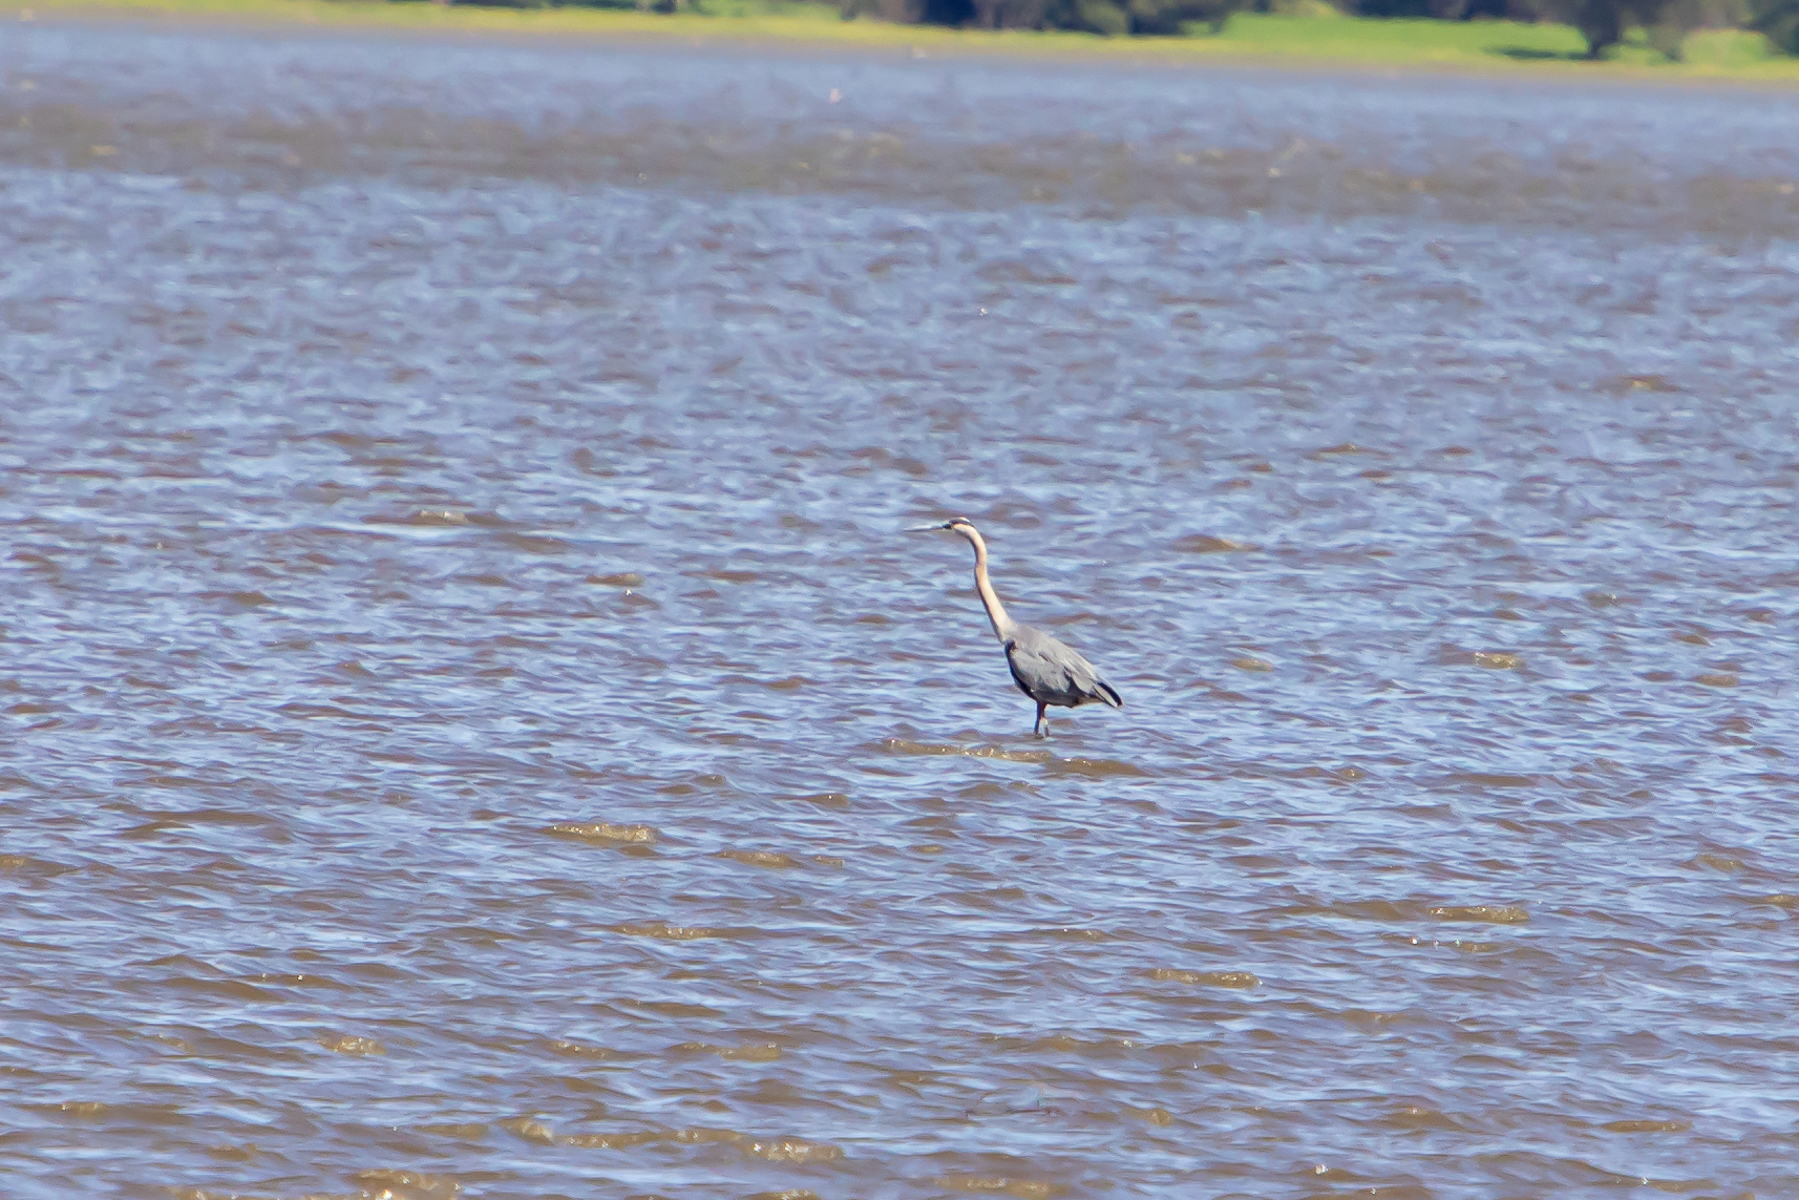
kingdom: Animalia
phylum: Chordata
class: Aves
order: Pelecaniformes
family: Ardeidae
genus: Ardea
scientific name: Ardea herodias
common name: Great blue heron
